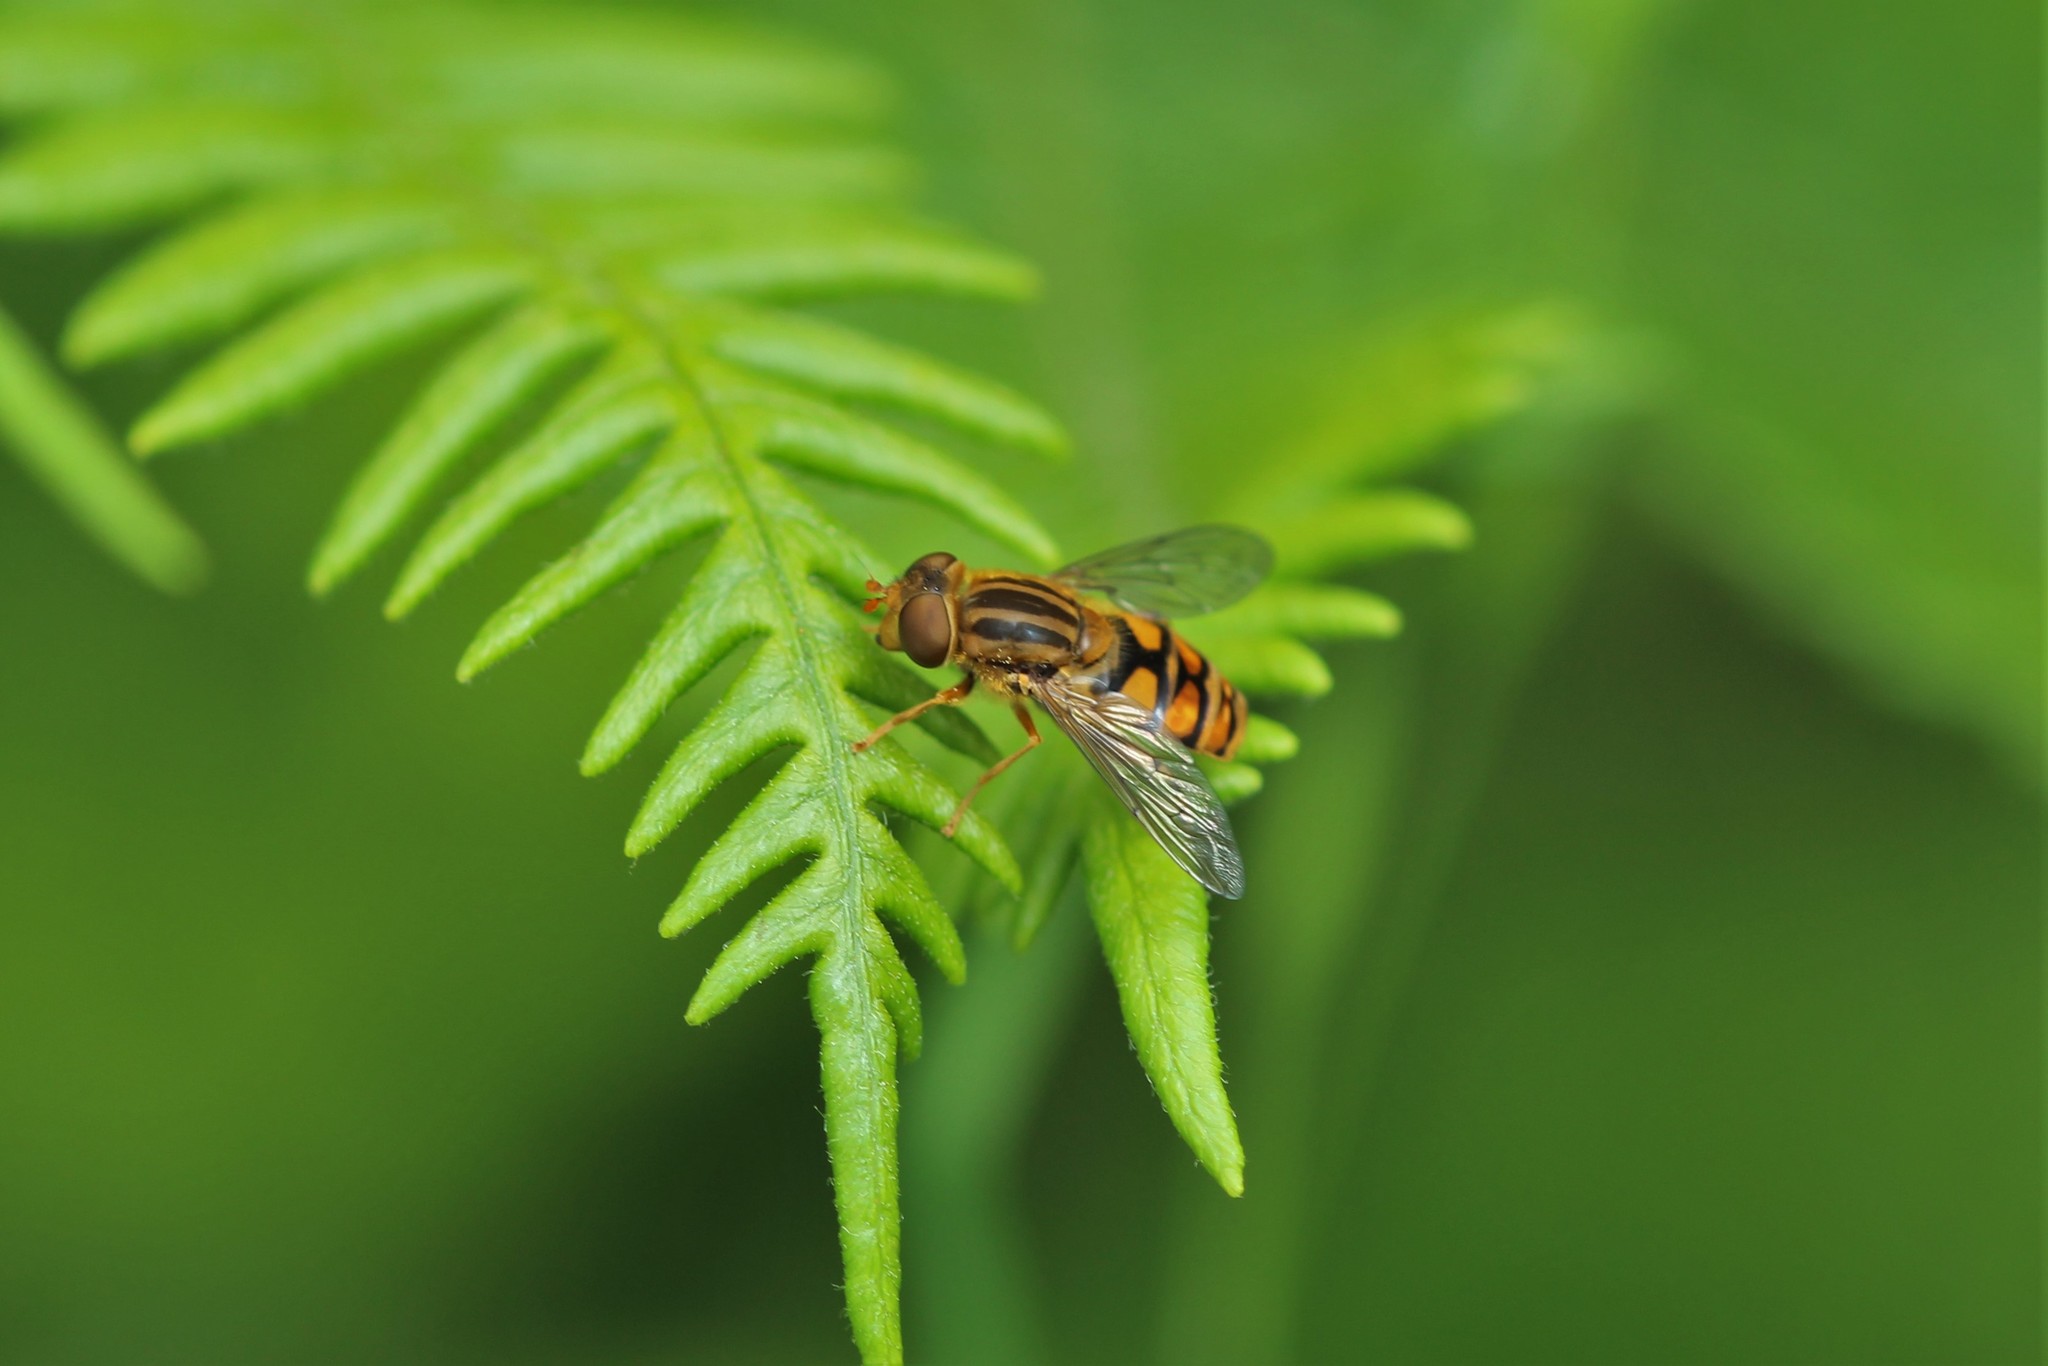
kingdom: Animalia
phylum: Arthropoda
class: Insecta
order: Diptera
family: Syrphidae
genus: Parhelophilus
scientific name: Parhelophilus laetus
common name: Common bog fly
